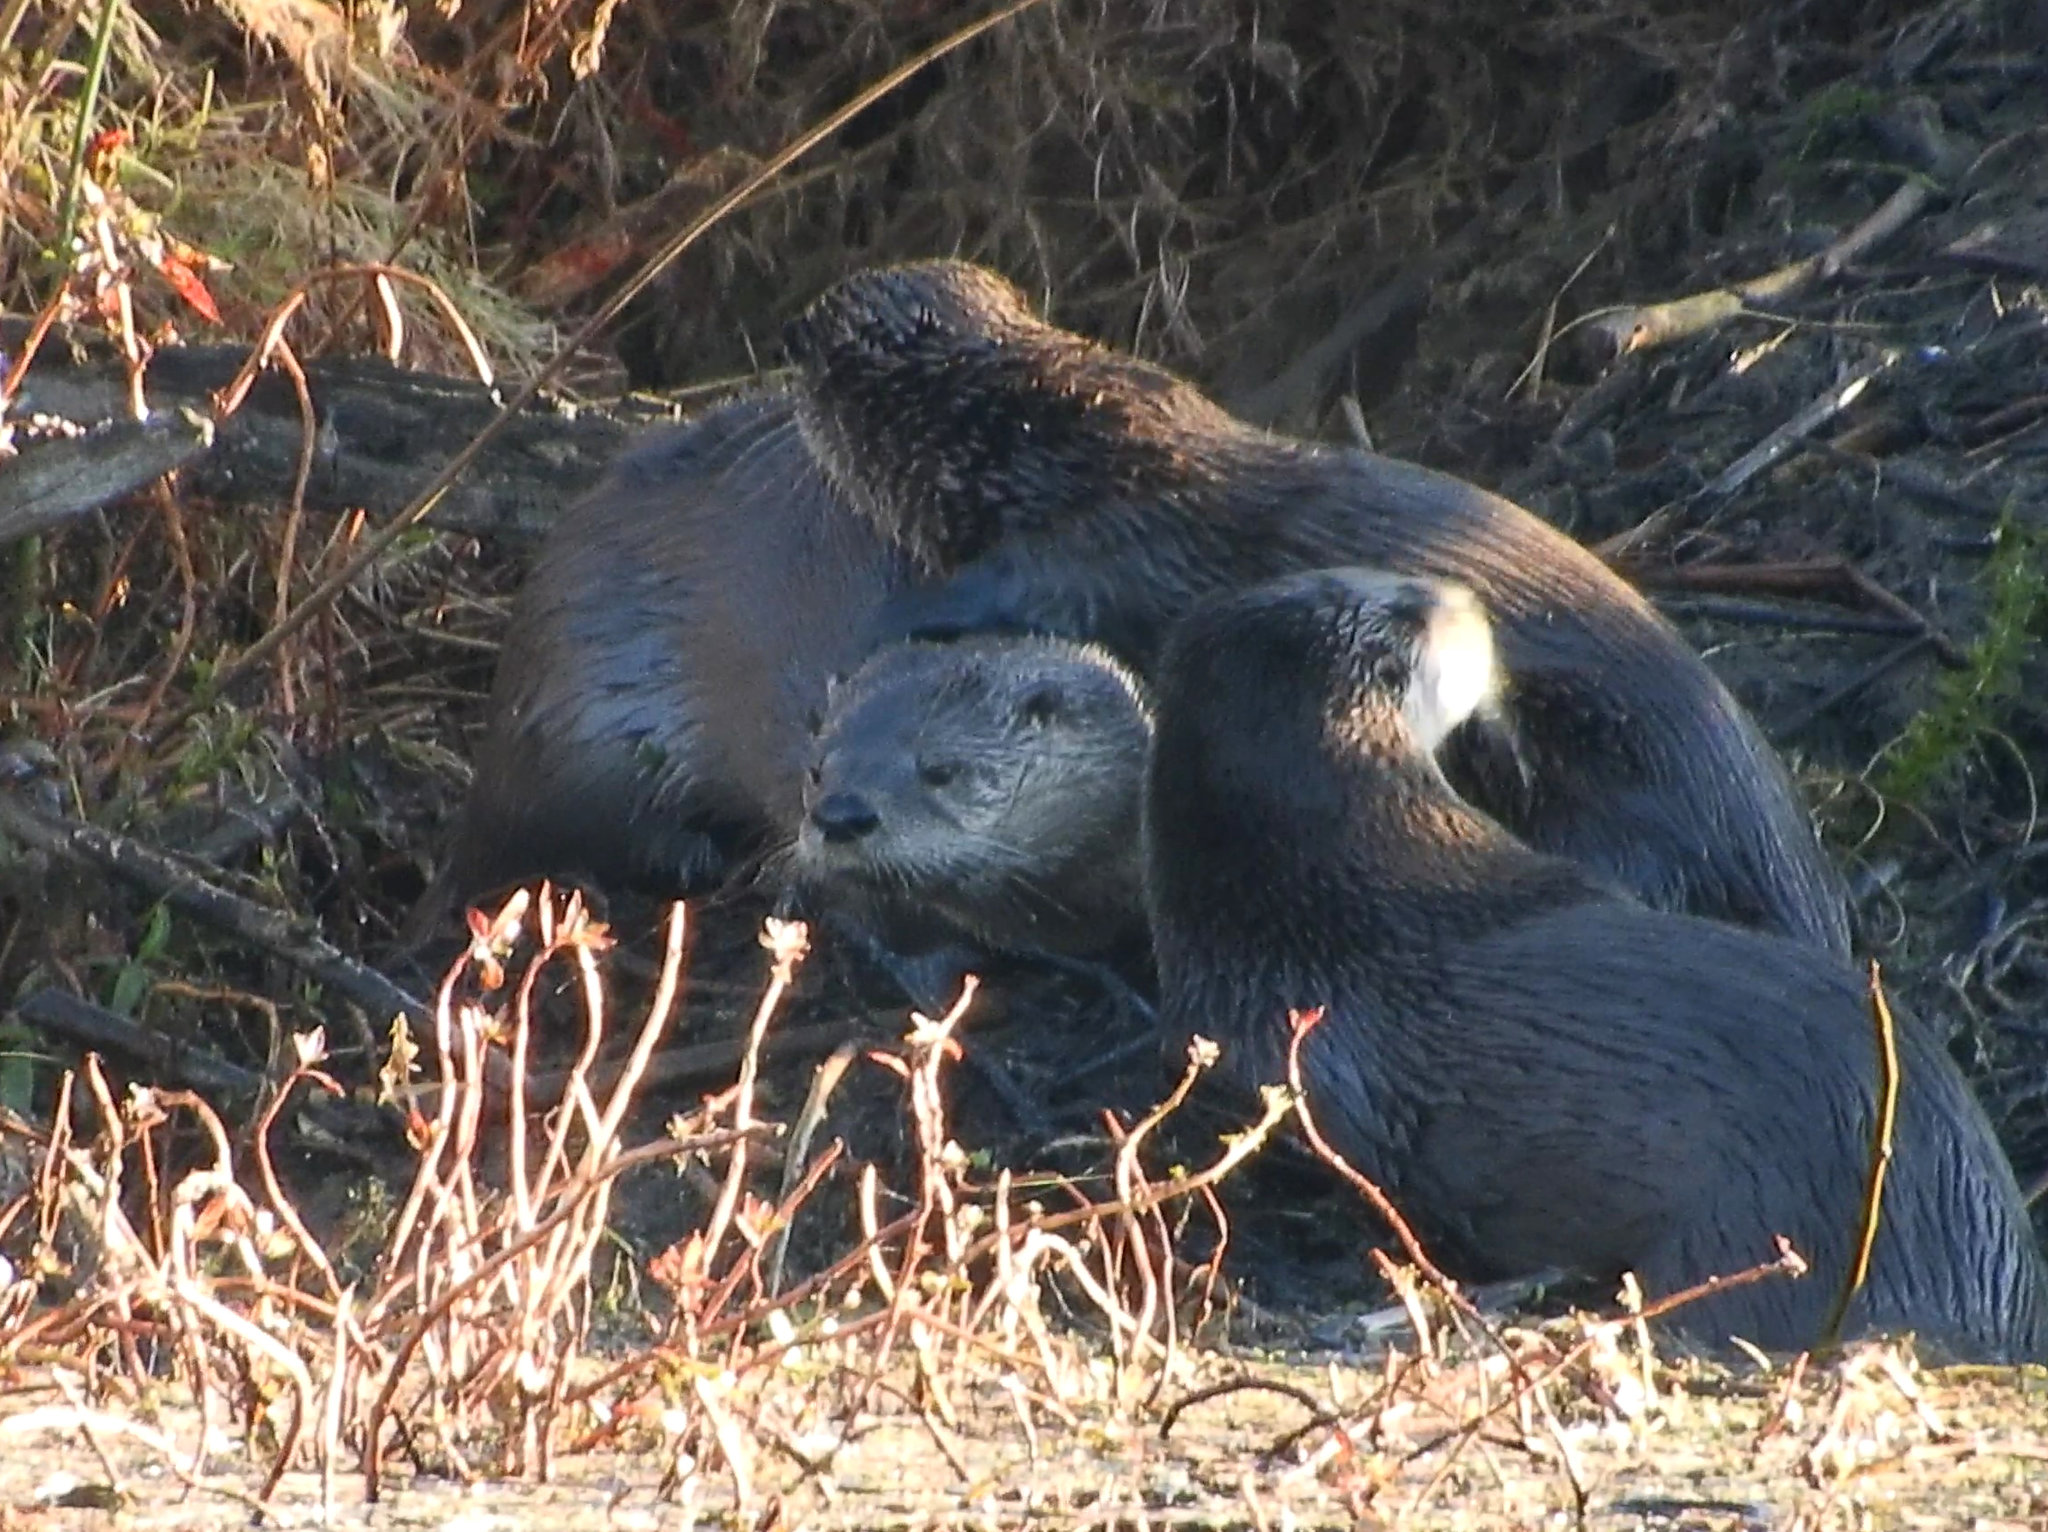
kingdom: Animalia
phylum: Chordata
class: Mammalia
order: Carnivora
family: Mustelidae
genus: Lontra
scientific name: Lontra canadensis
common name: North american river otter
